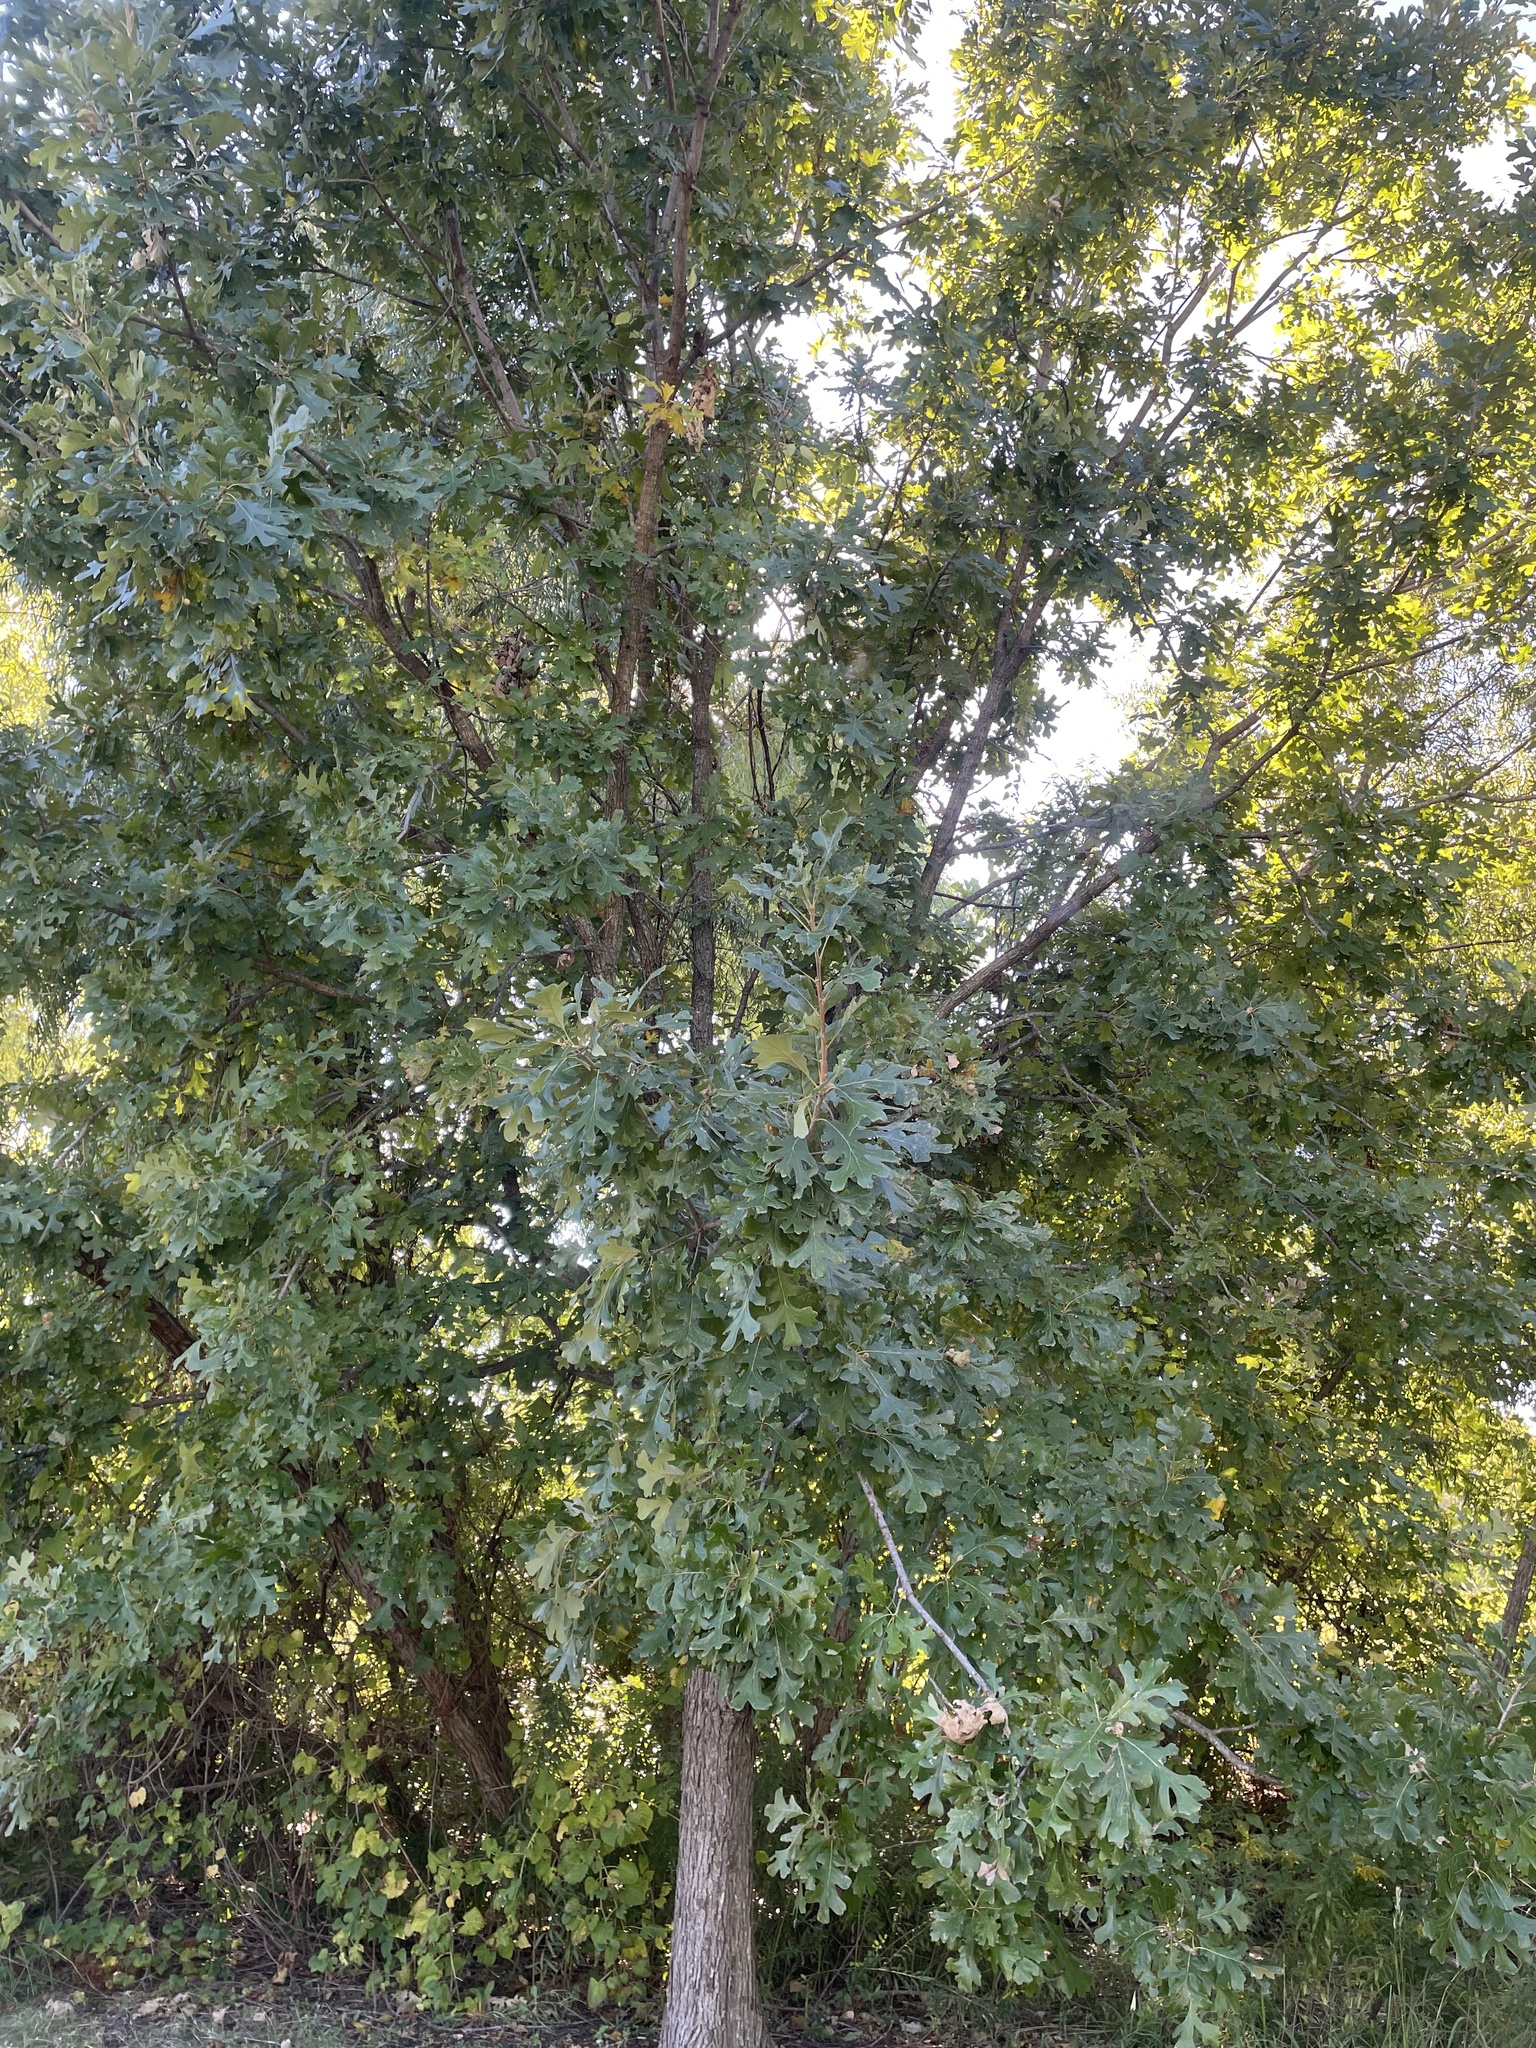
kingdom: Plantae
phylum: Tracheophyta
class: Magnoliopsida
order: Fagales
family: Fagaceae
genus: Quercus
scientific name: Quercus macrocarpa
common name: Bur oak
